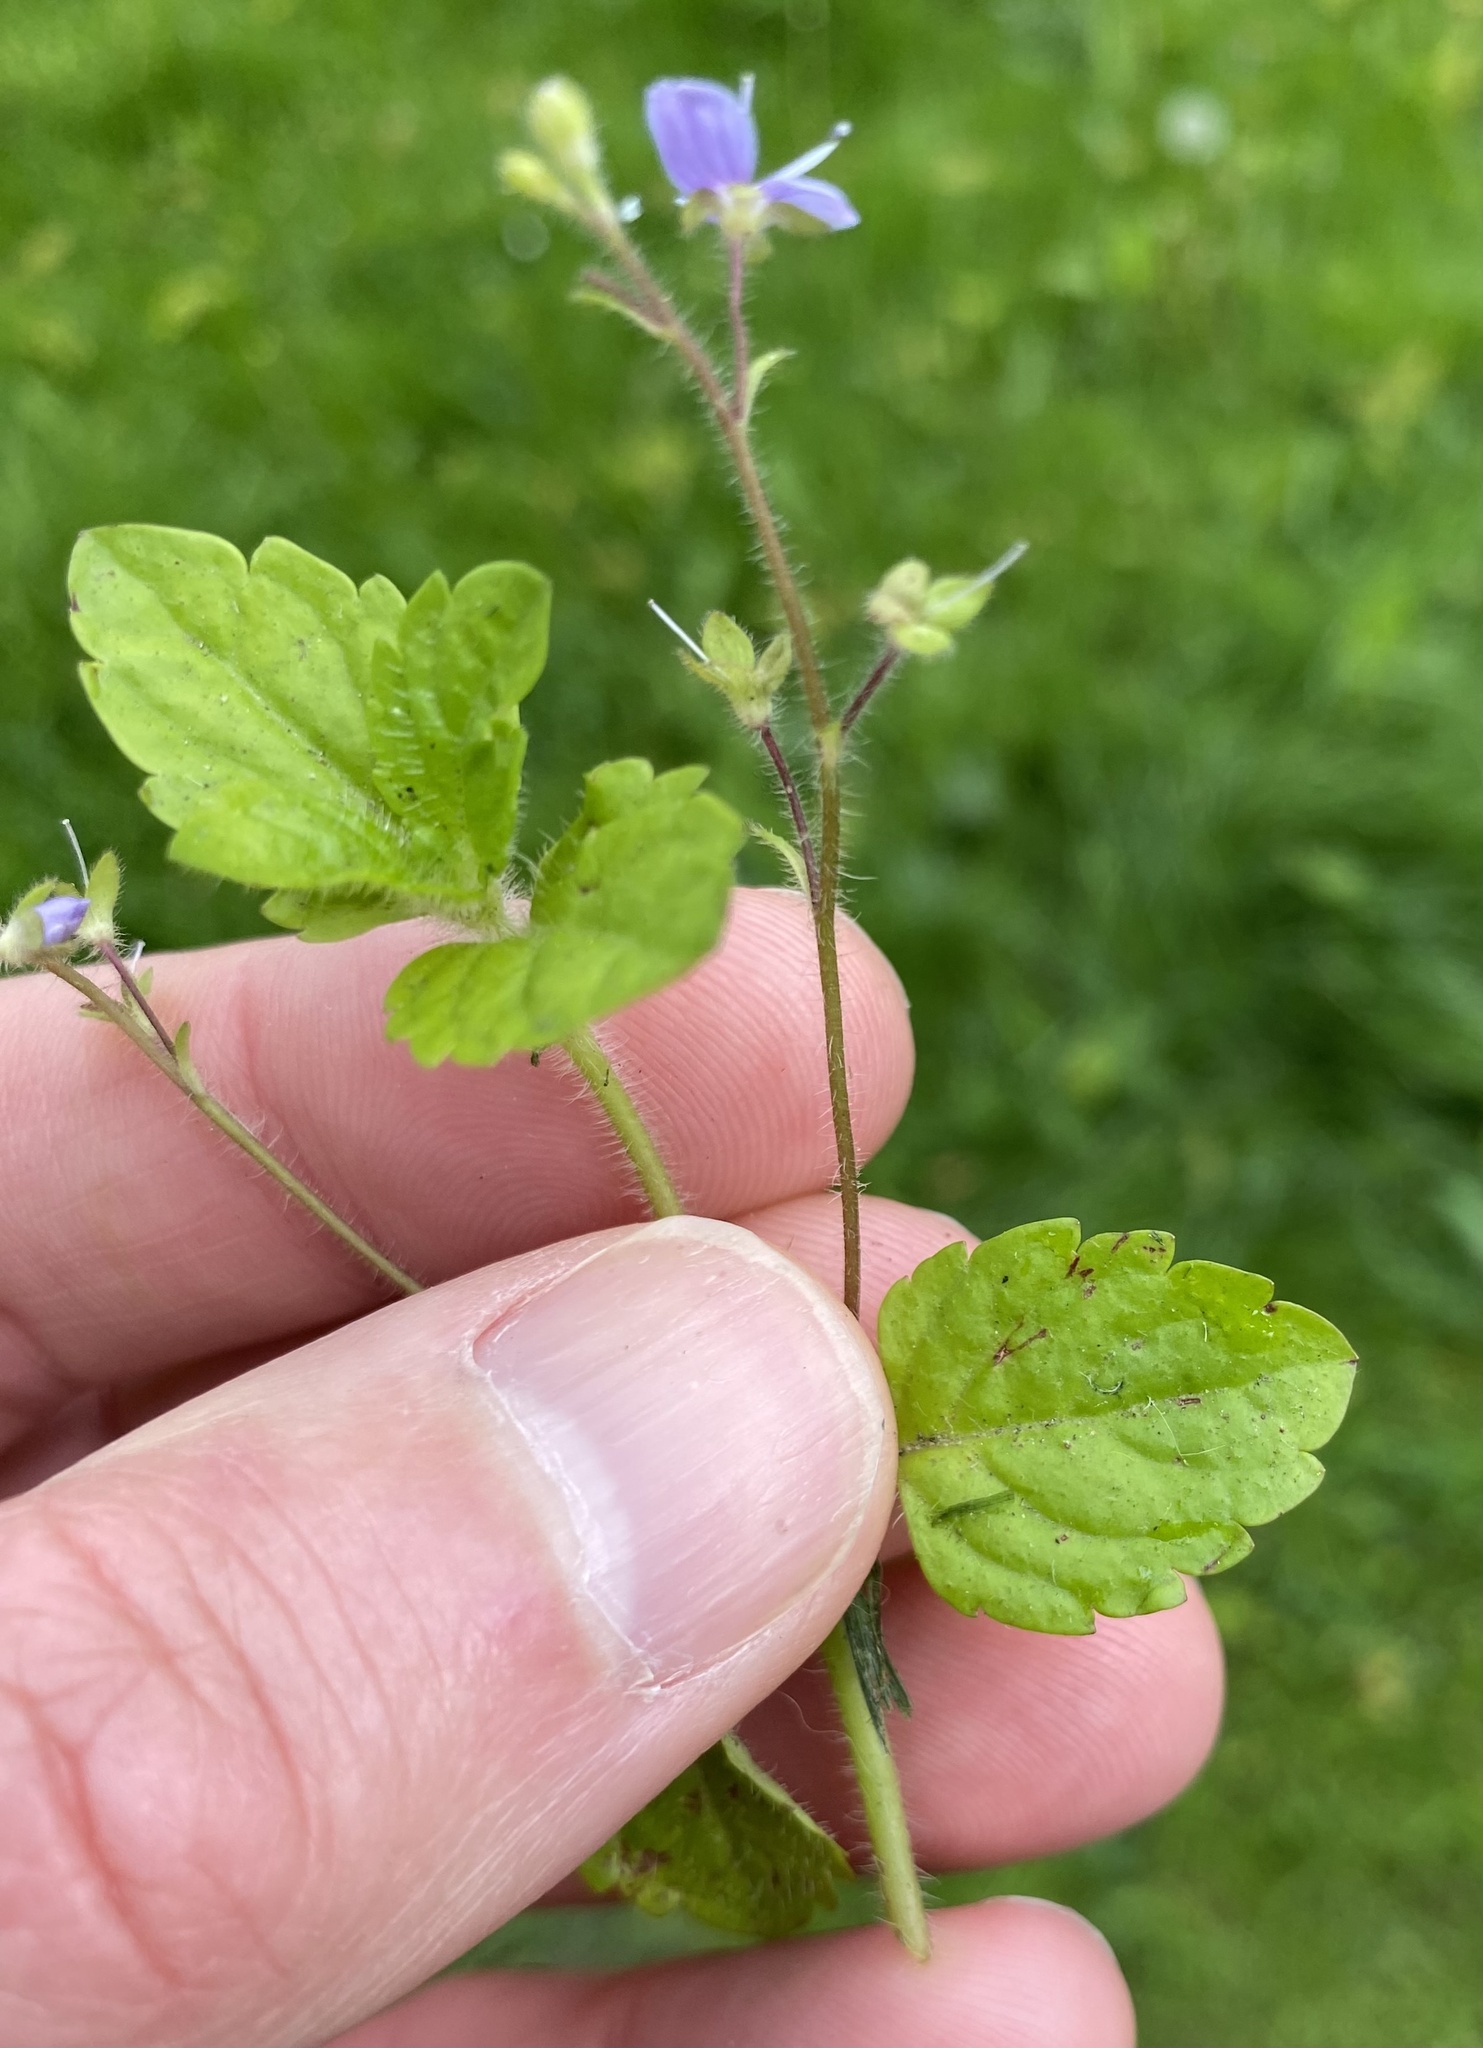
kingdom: Plantae
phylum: Tracheophyta
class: Magnoliopsida
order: Lamiales
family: Plantaginaceae
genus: Veronica
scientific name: Veronica montana
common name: Wood speedwell
